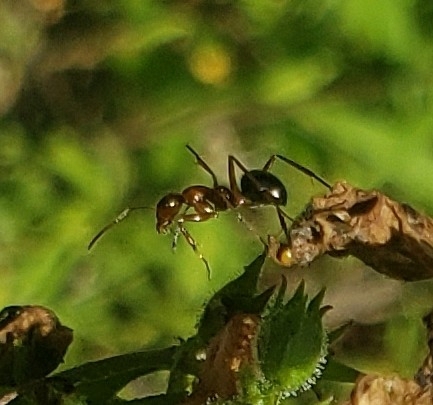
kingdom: Animalia
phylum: Arthropoda
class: Insecta
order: Hymenoptera
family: Formicidae
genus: Formica
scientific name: Formica
